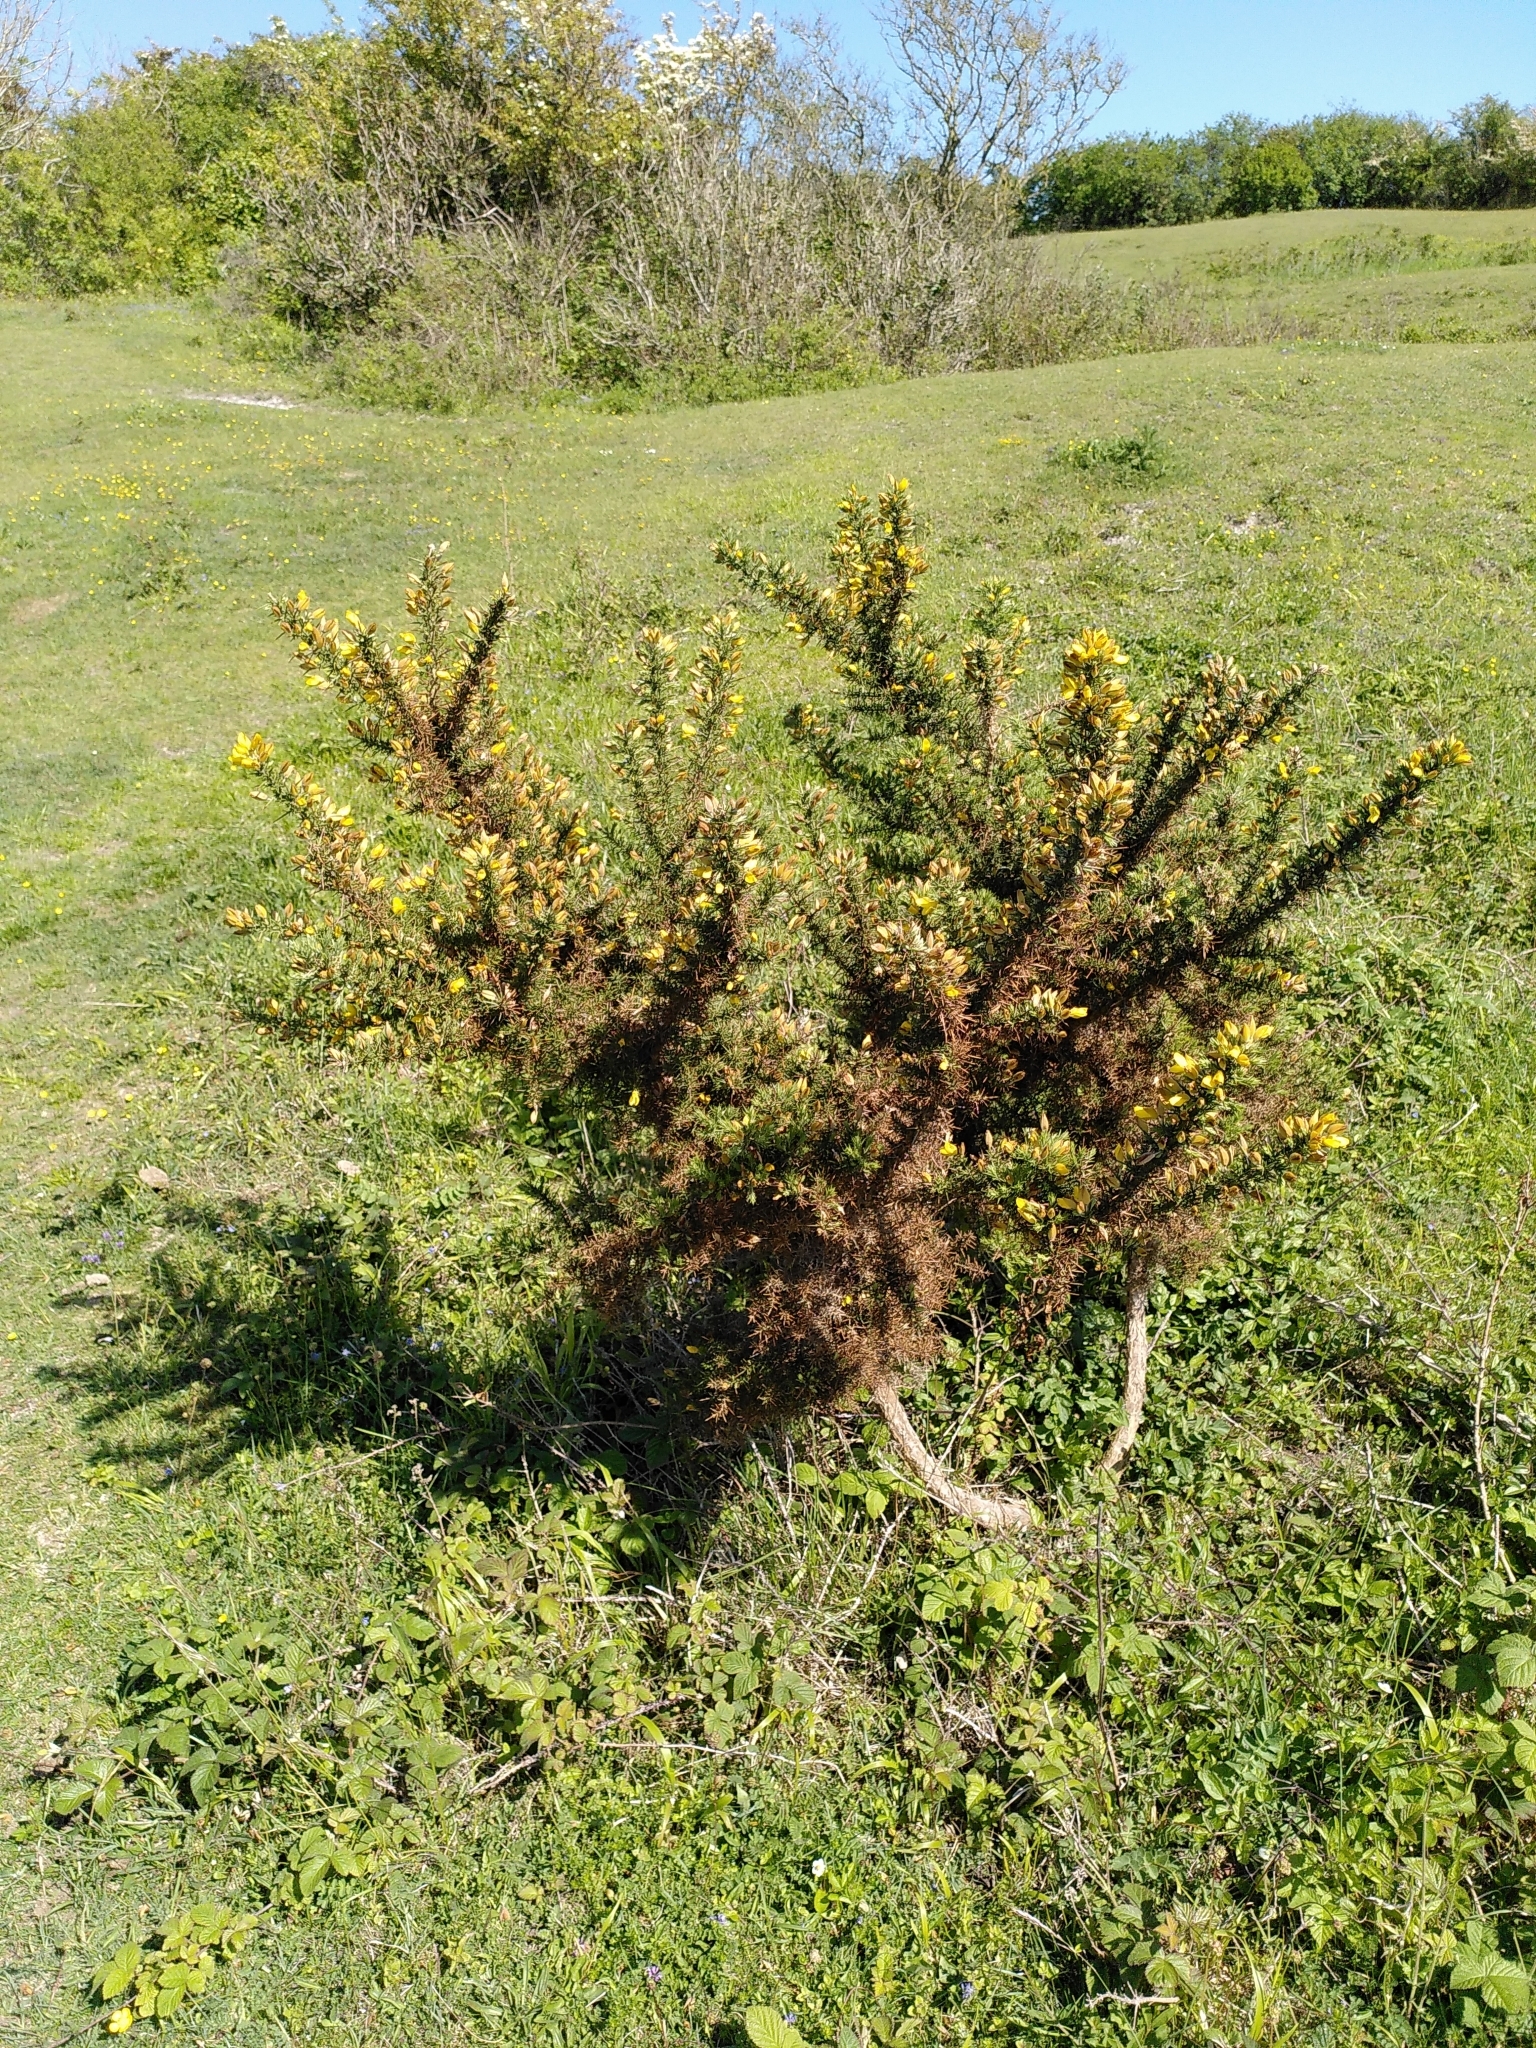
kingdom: Plantae
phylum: Tracheophyta
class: Magnoliopsida
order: Fabales
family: Fabaceae
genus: Ulex
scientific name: Ulex europaeus
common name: Common gorse
